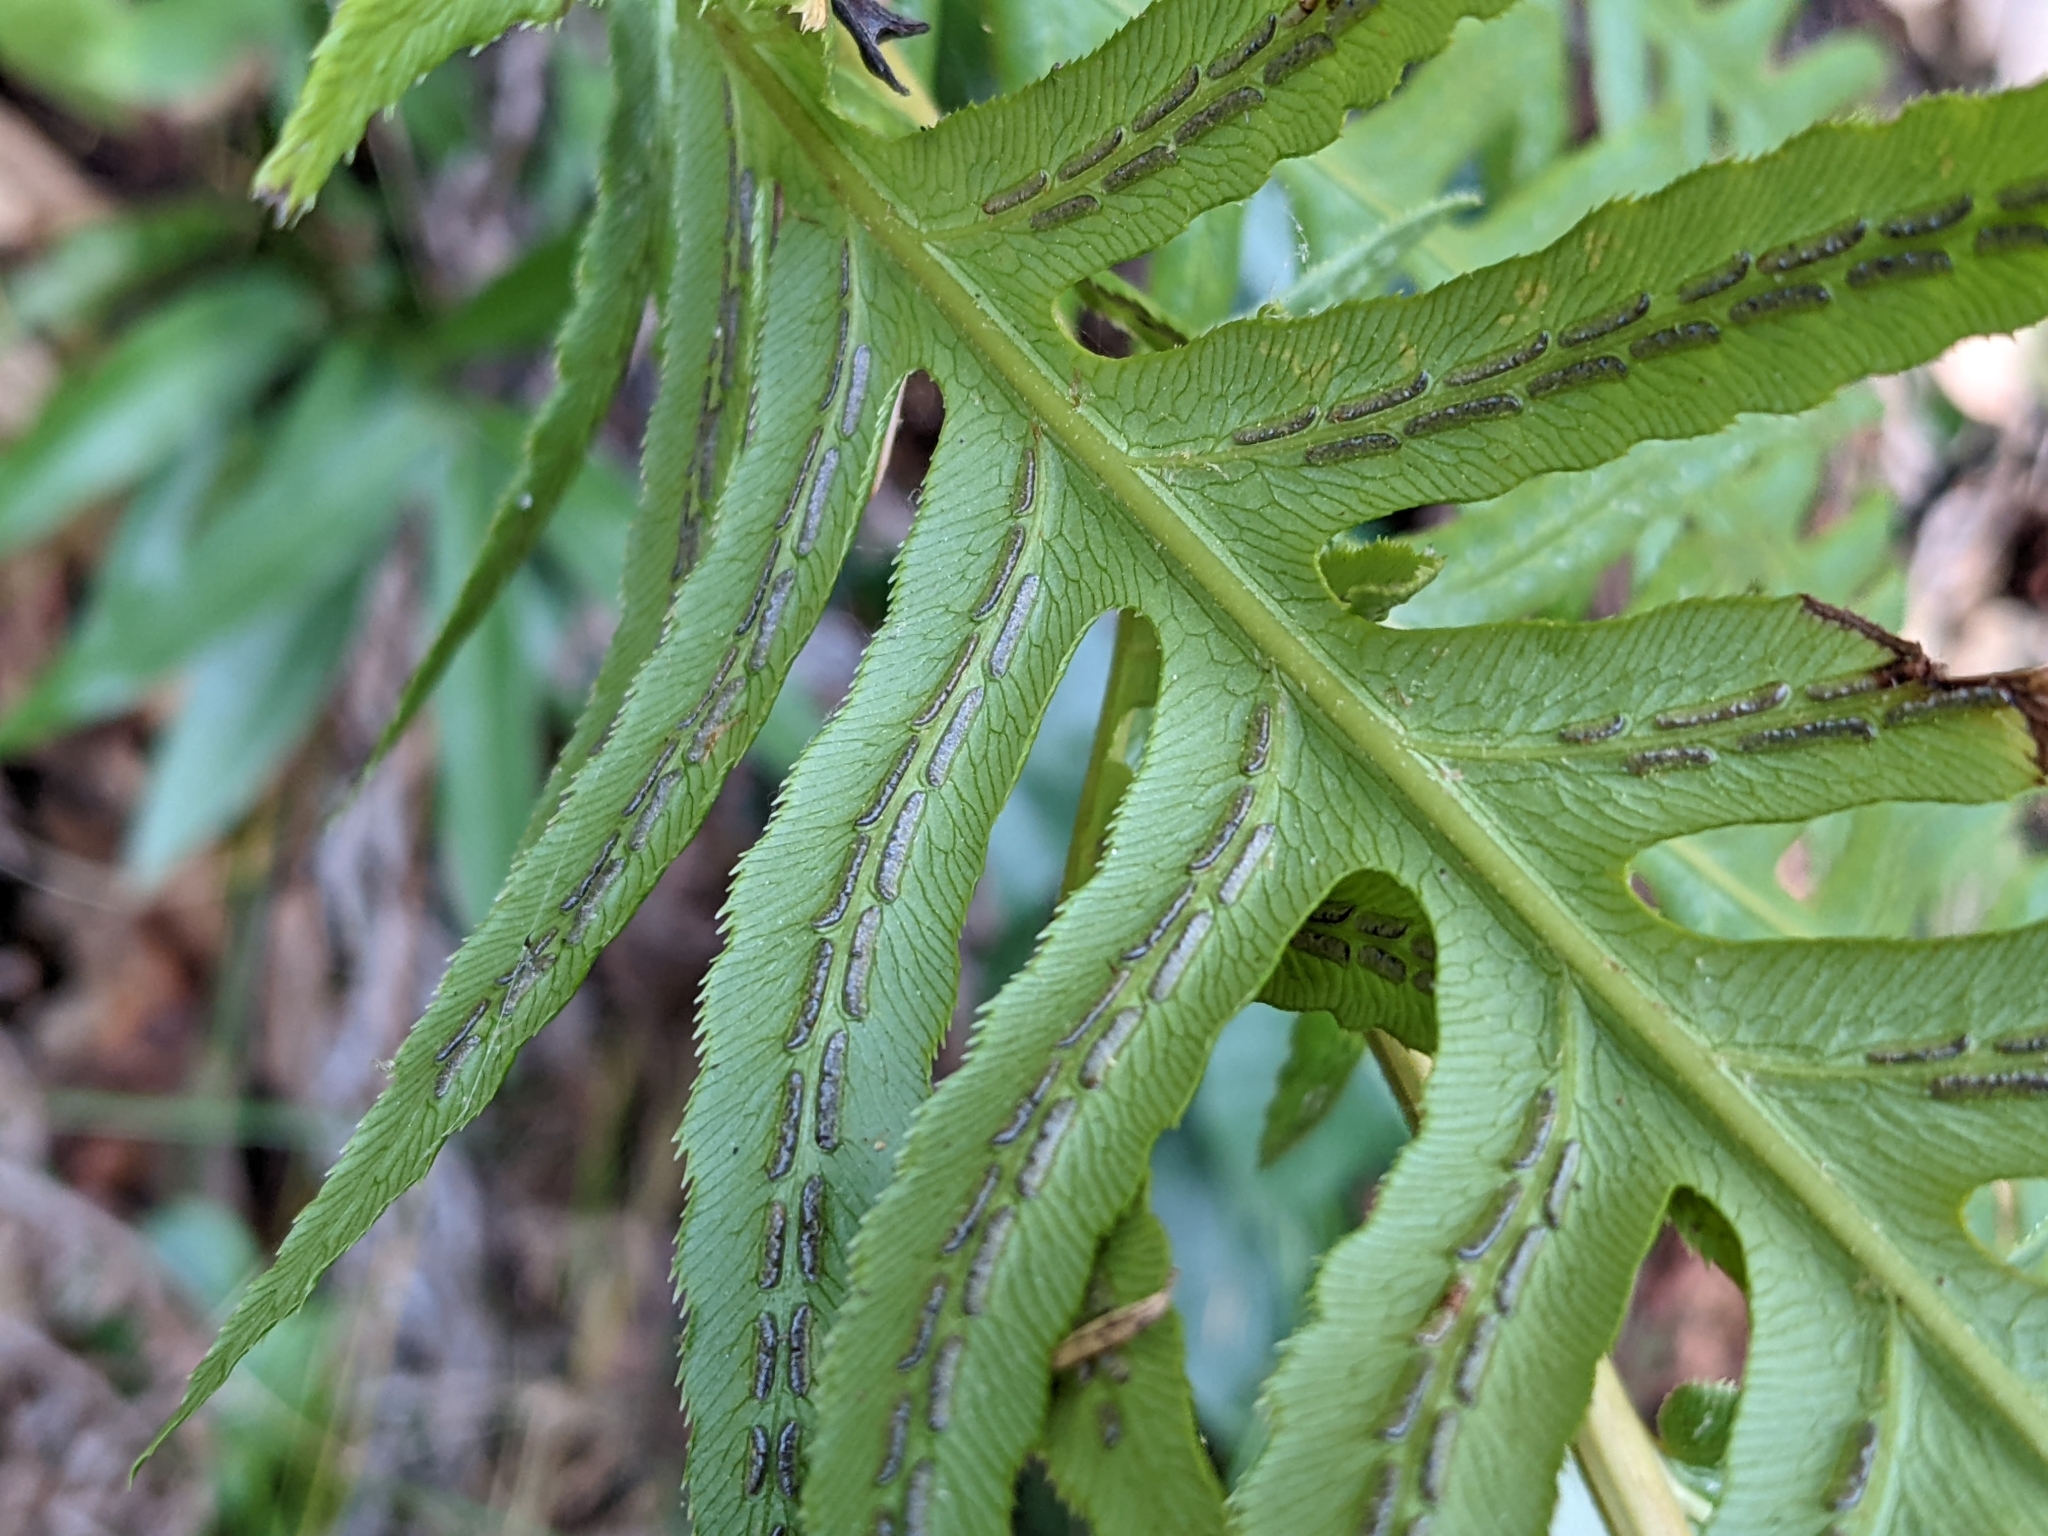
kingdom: Plantae
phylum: Tracheophyta
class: Polypodiopsida
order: Polypodiales
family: Blechnaceae
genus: Woodwardia
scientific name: Woodwardia fimbriata
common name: Giant chain fern
